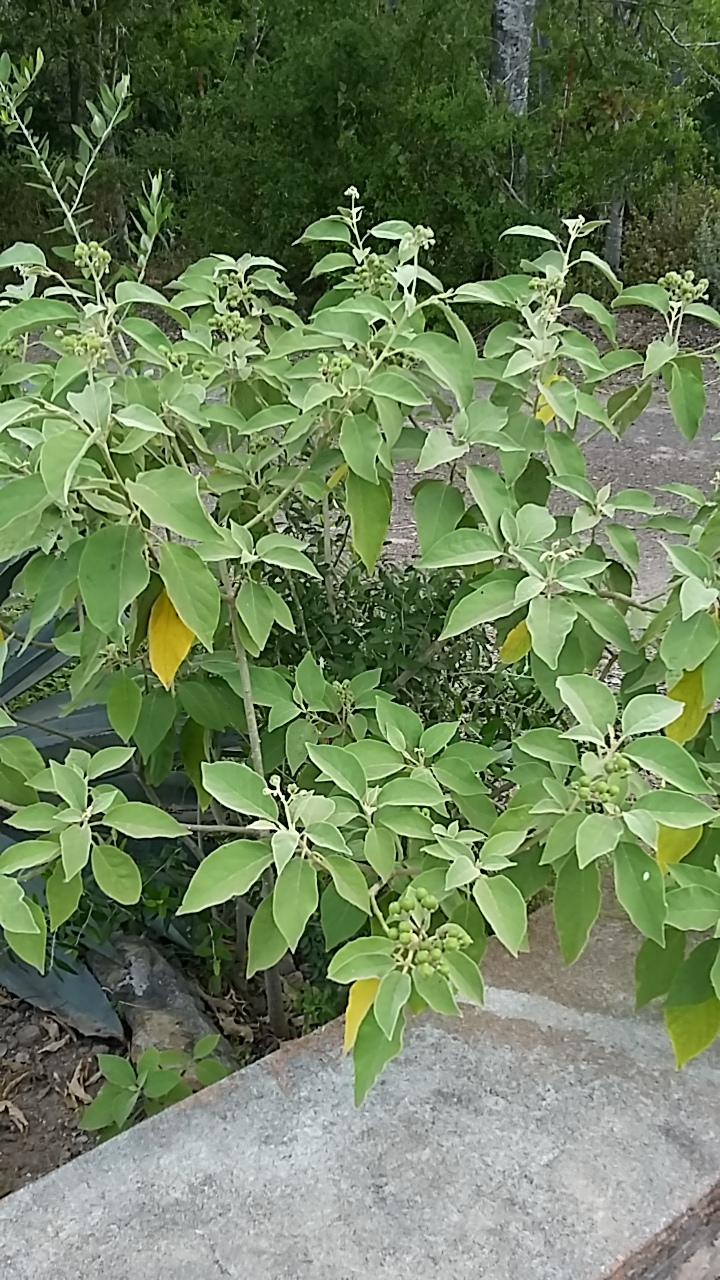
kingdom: Plantae
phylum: Tracheophyta
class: Magnoliopsida
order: Solanales
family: Solanaceae
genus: Solanum
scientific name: Solanum erianthum
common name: Tobacco-tree
